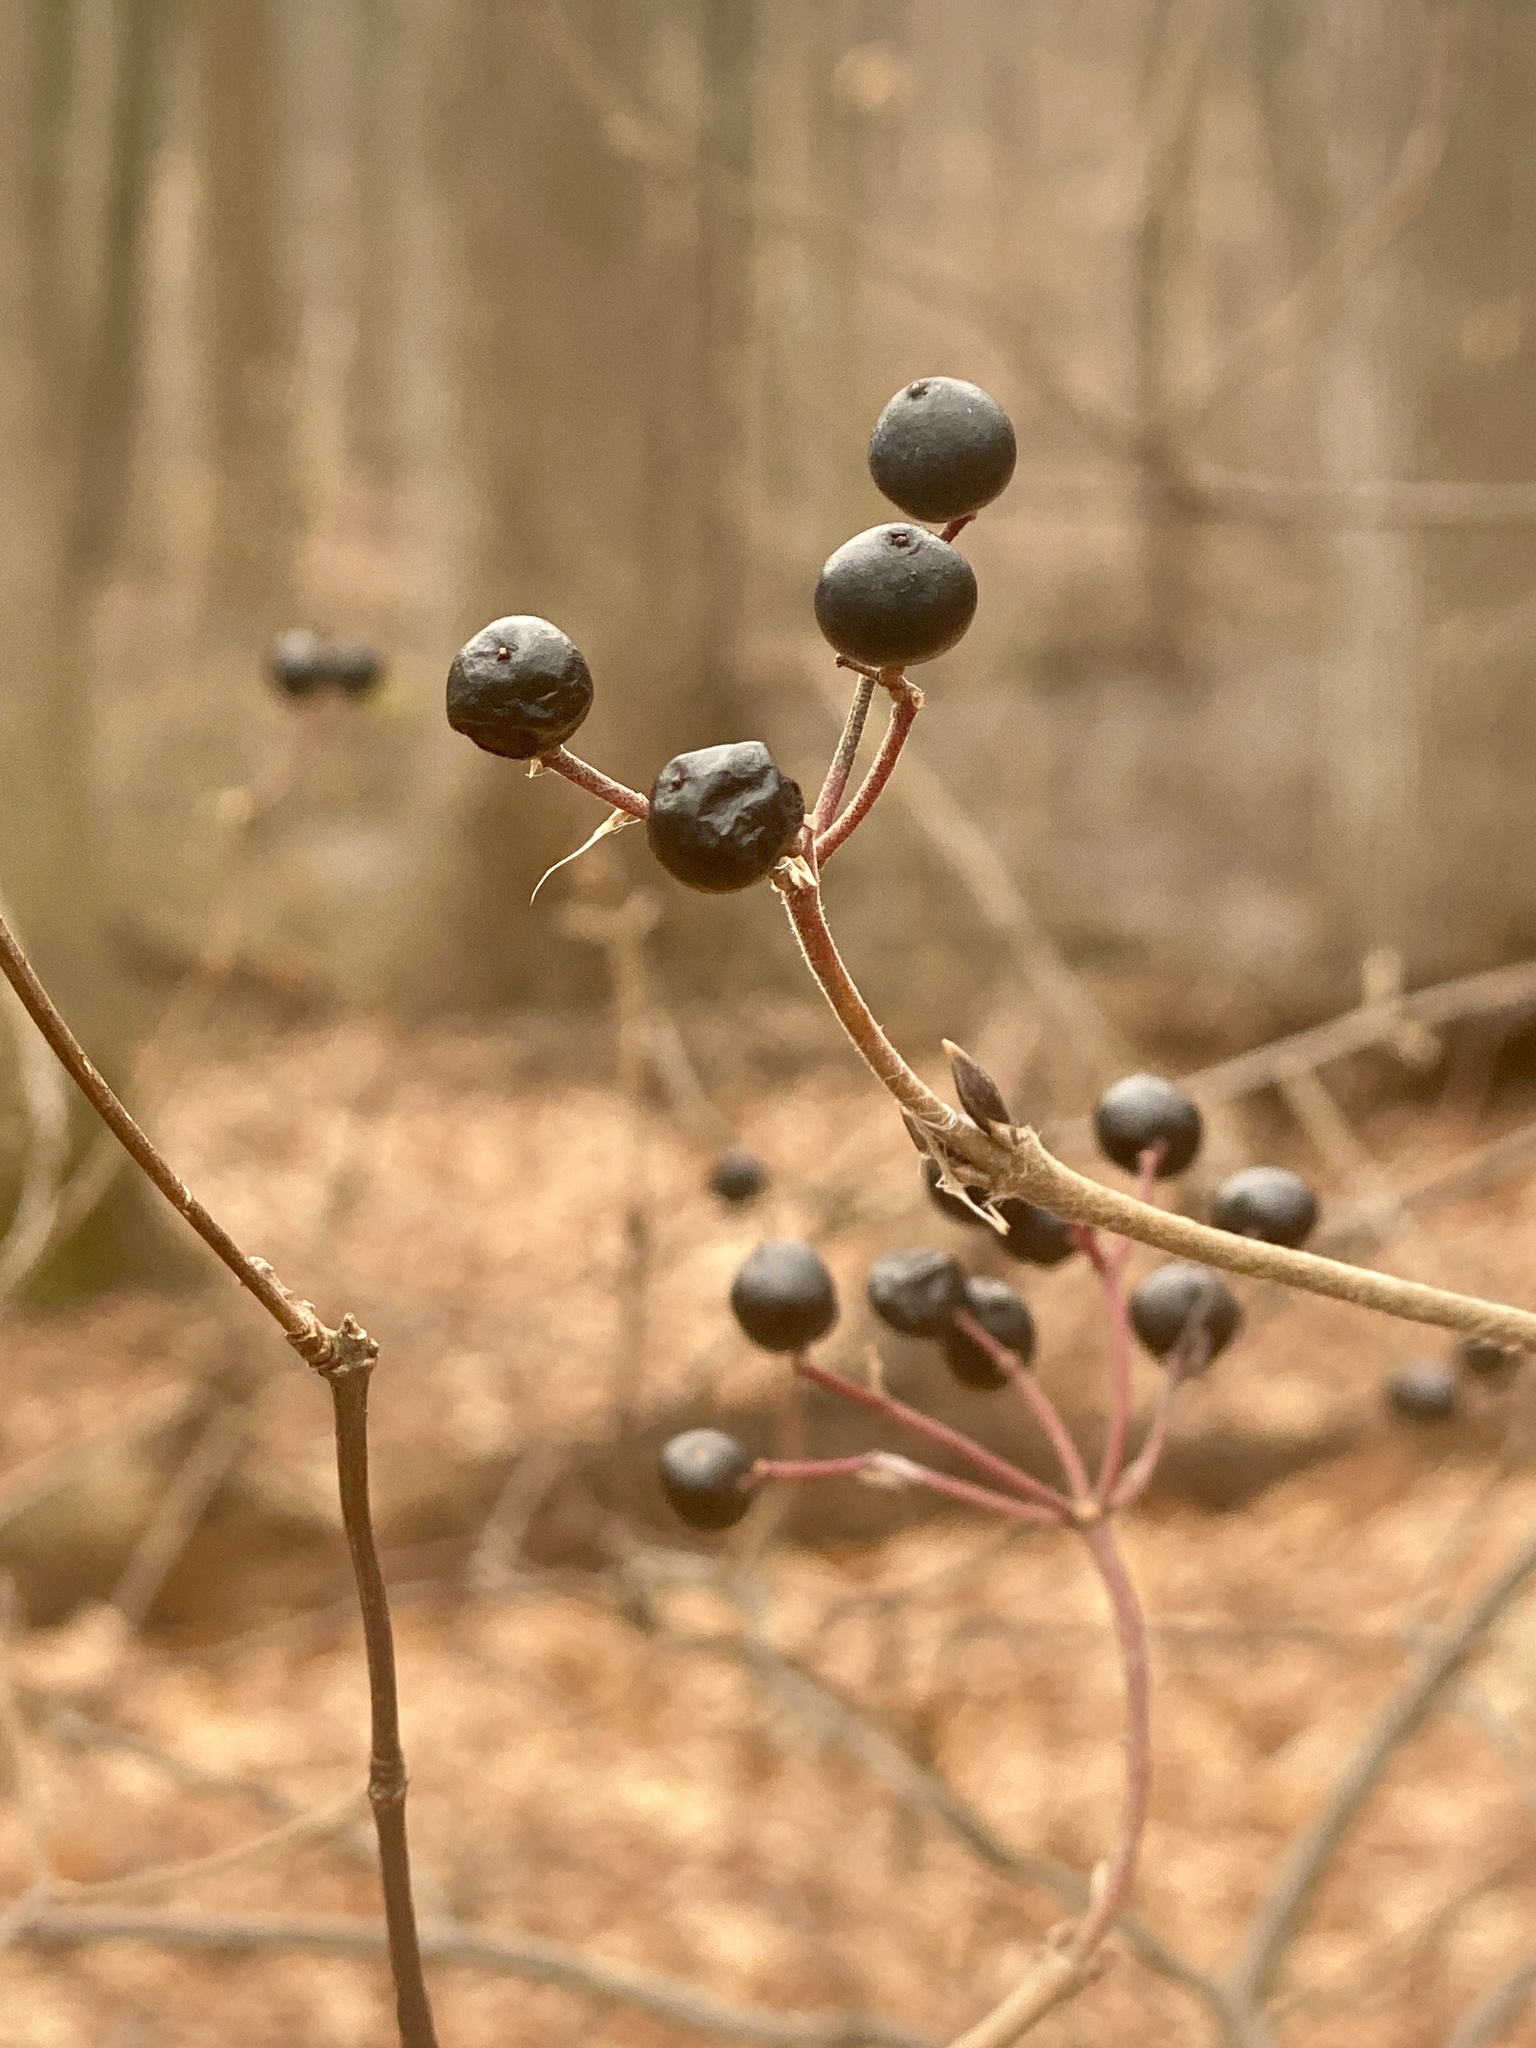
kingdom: Plantae
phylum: Tracheophyta
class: Magnoliopsida
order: Dipsacales
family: Viburnaceae
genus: Viburnum
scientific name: Viburnum acerifolium
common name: Dockmackie
